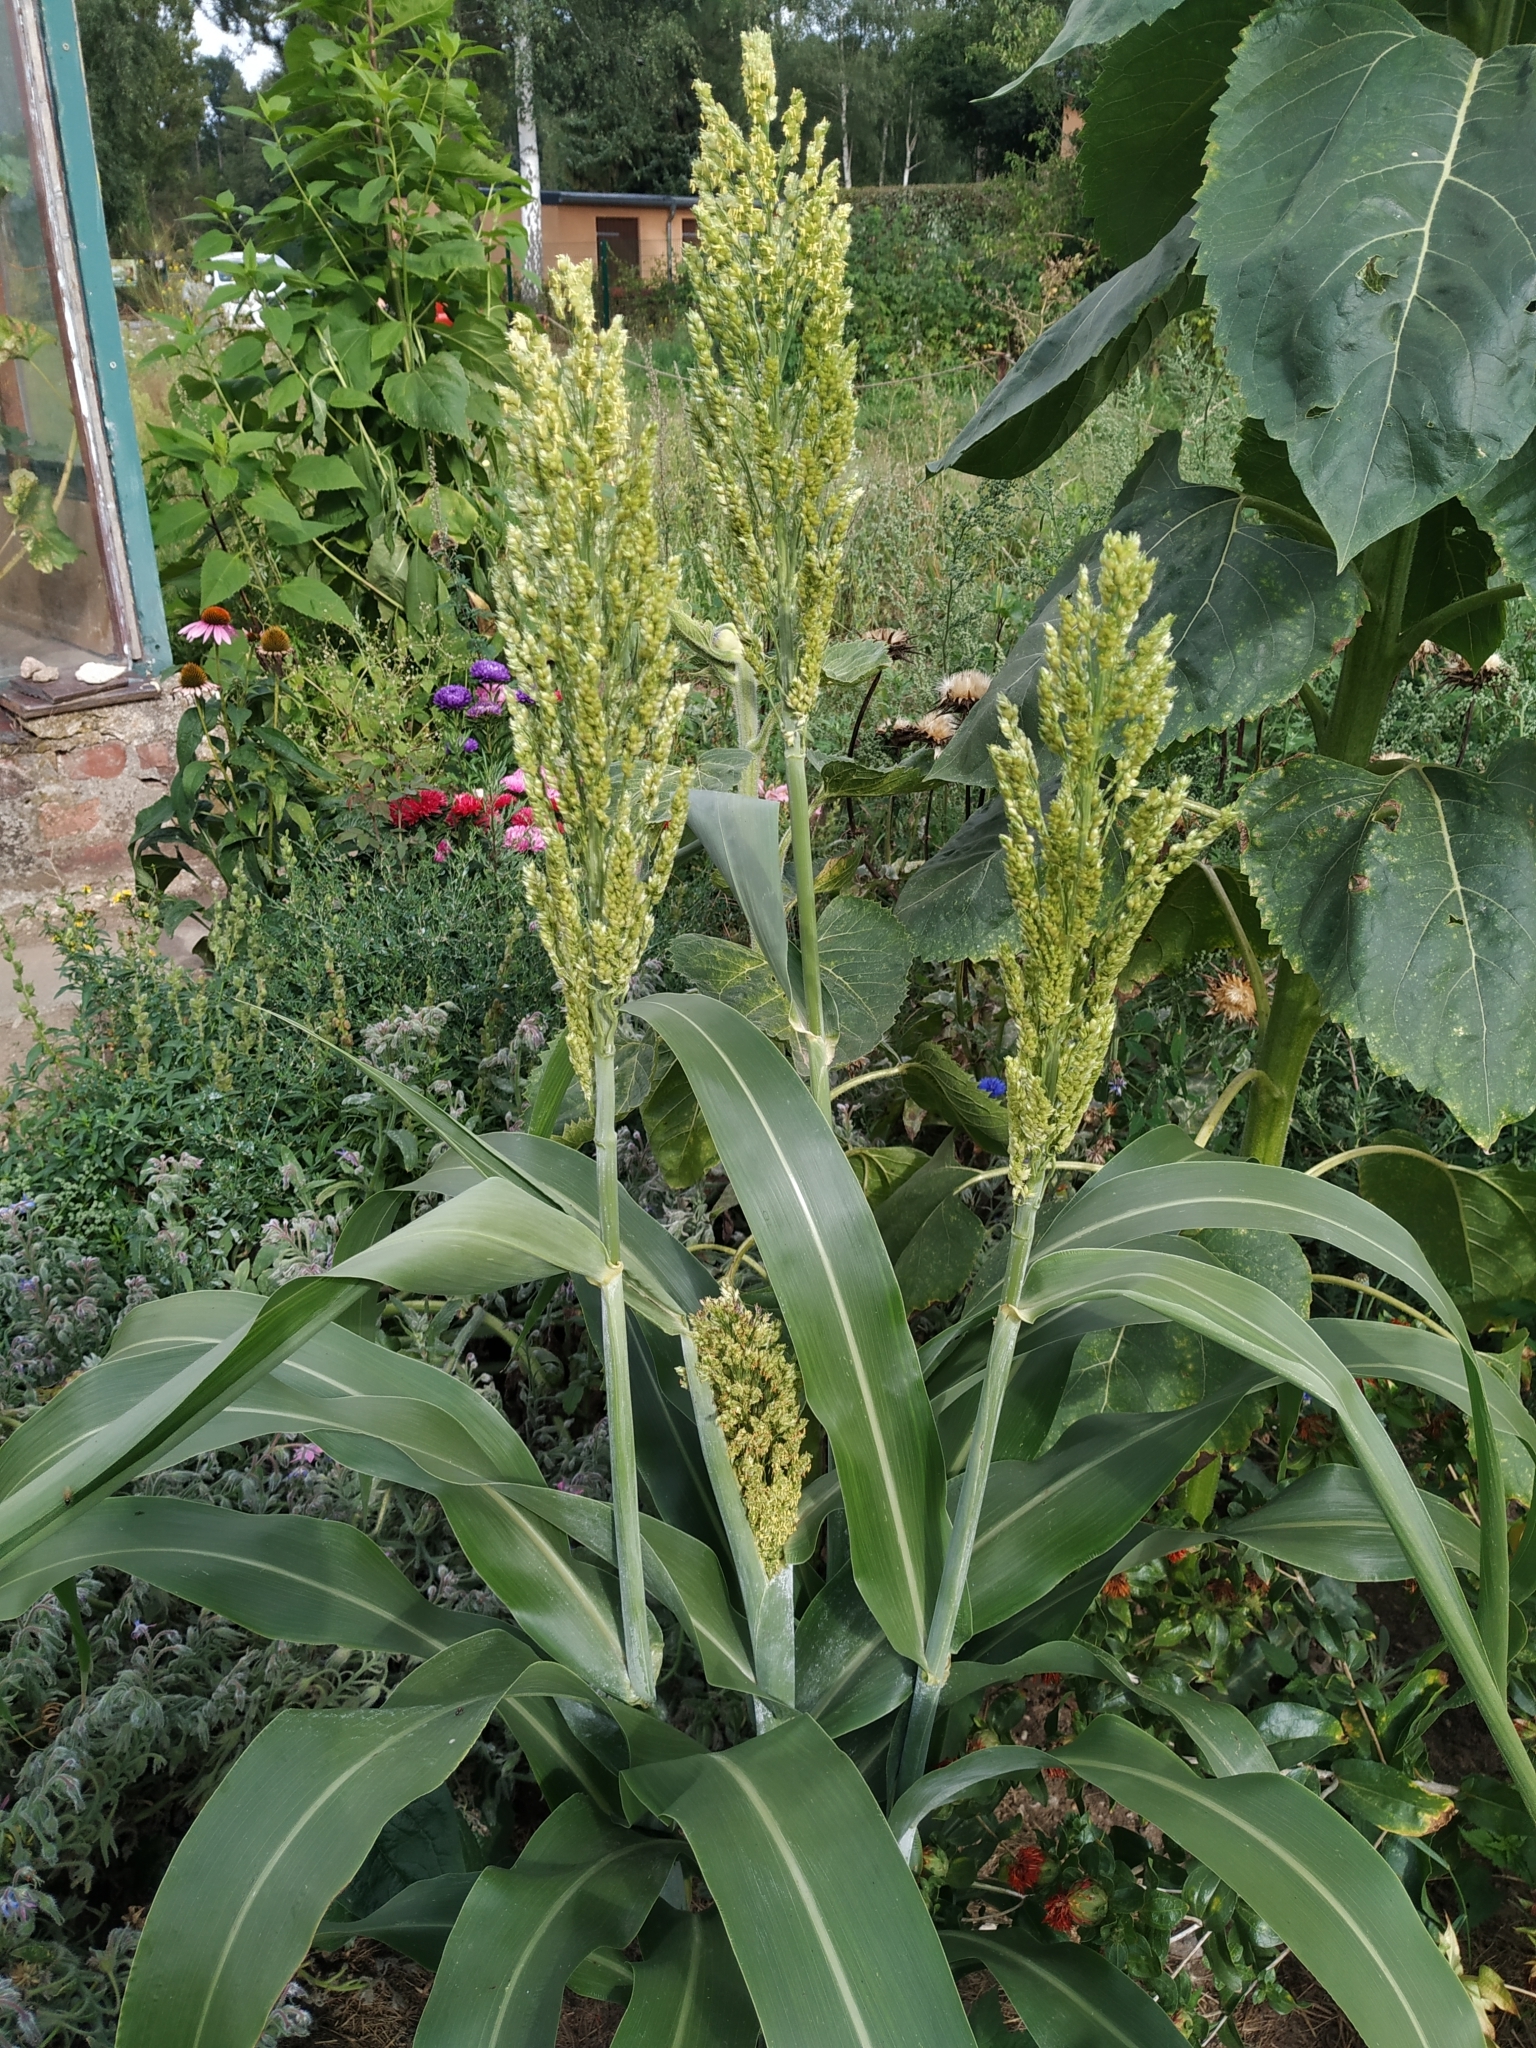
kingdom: Plantae
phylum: Tracheophyta
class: Liliopsida
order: Poales
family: Poaceae
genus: Sorghum
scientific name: Sorghum bicolor
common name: Sorghum
